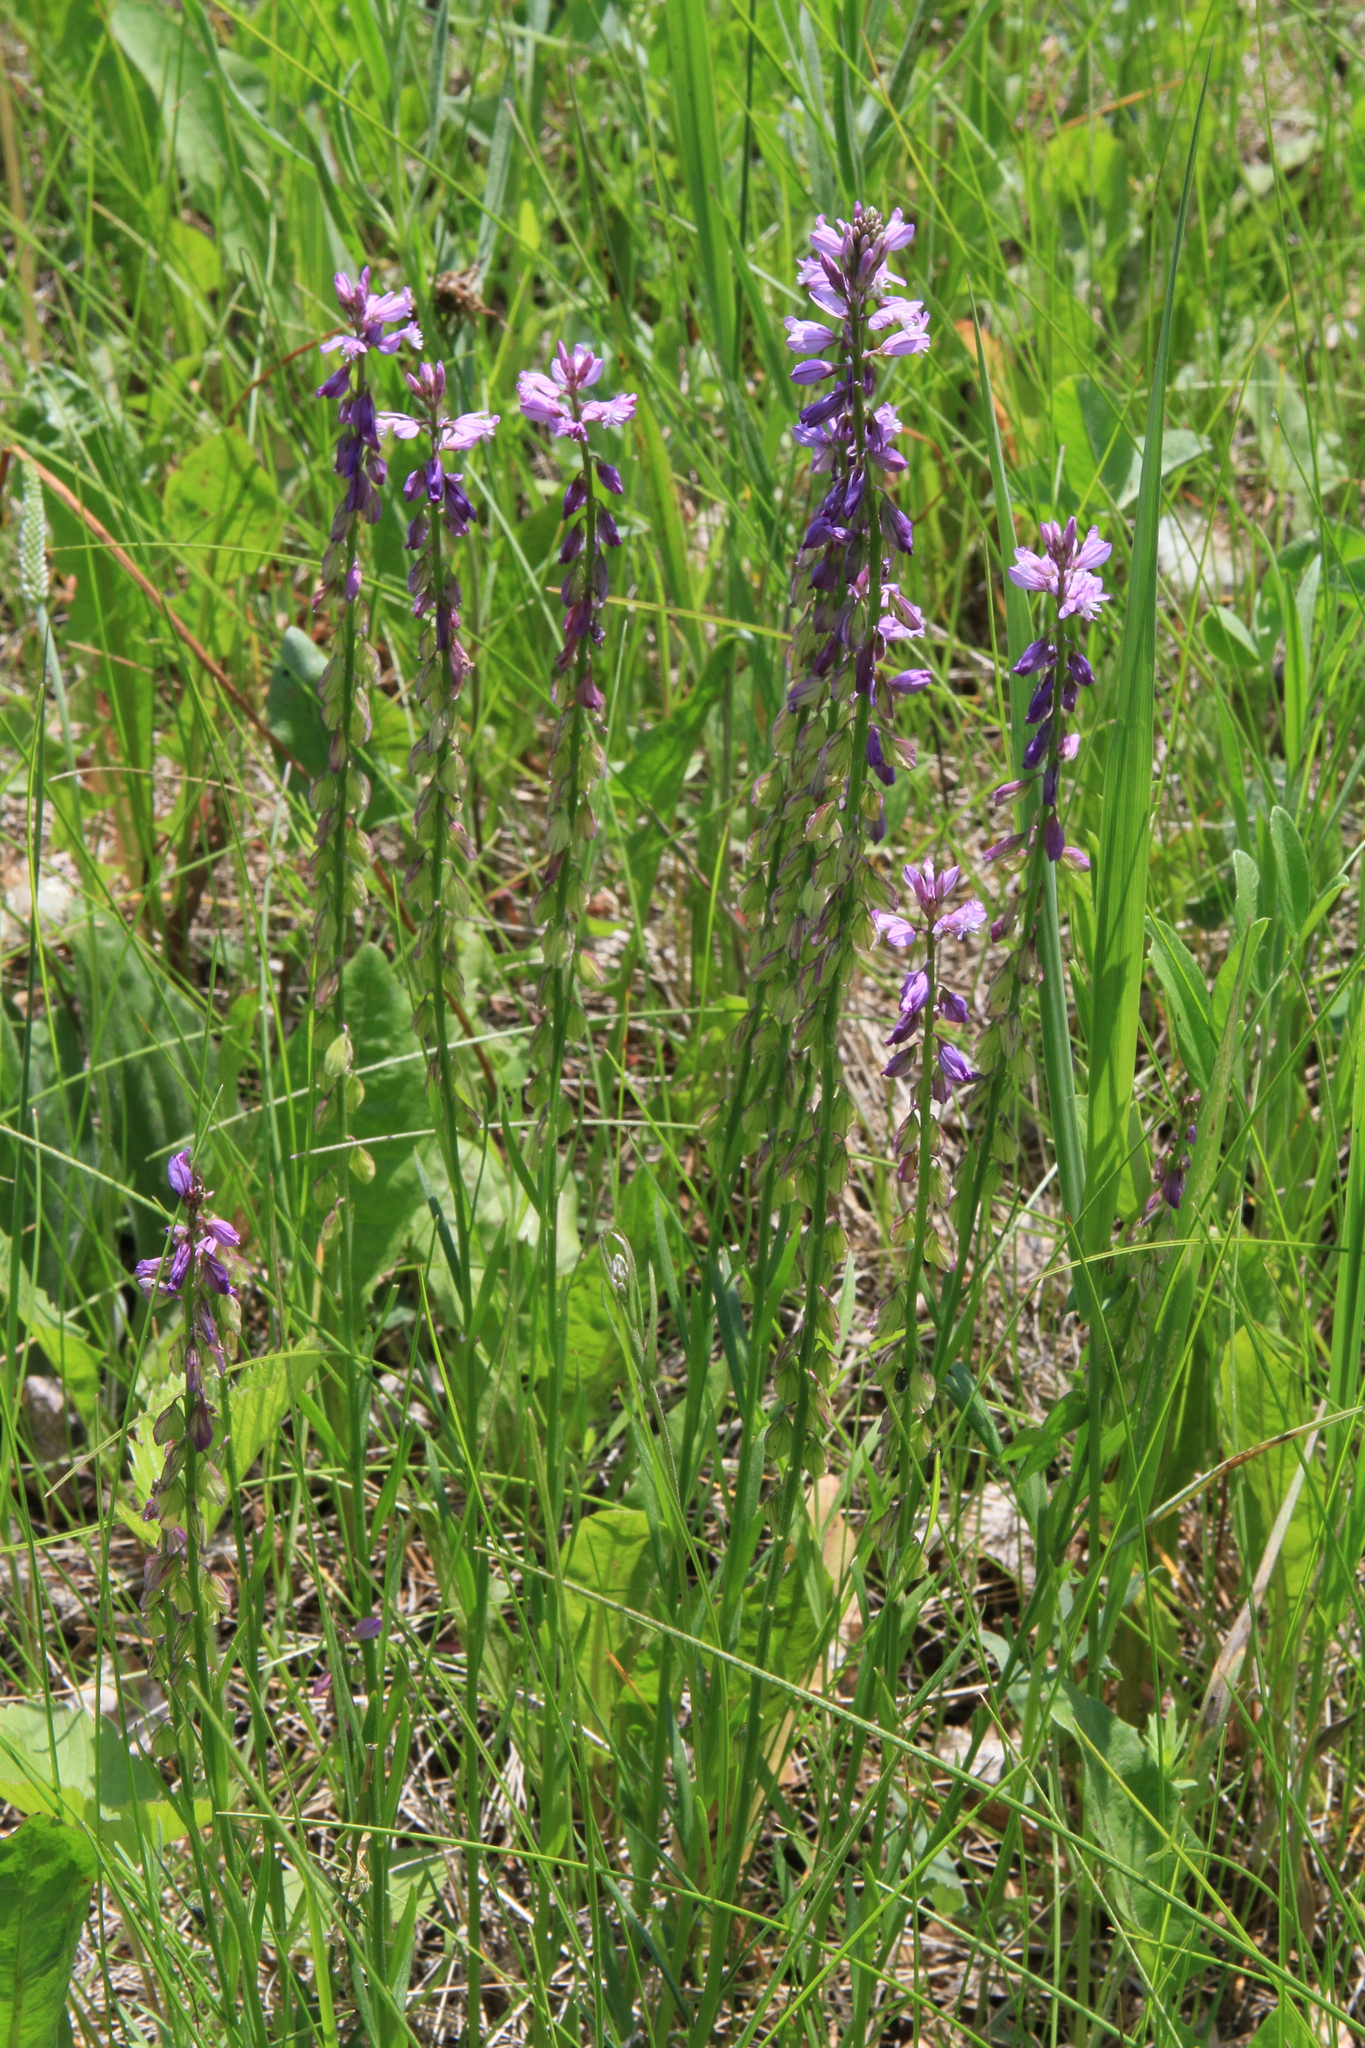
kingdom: Plantae
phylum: Tracheophyta
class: Magnoliopsida
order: Fabales
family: Polygalaceae
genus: Polygala
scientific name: Polygala comosa
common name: Tufted milkwort
